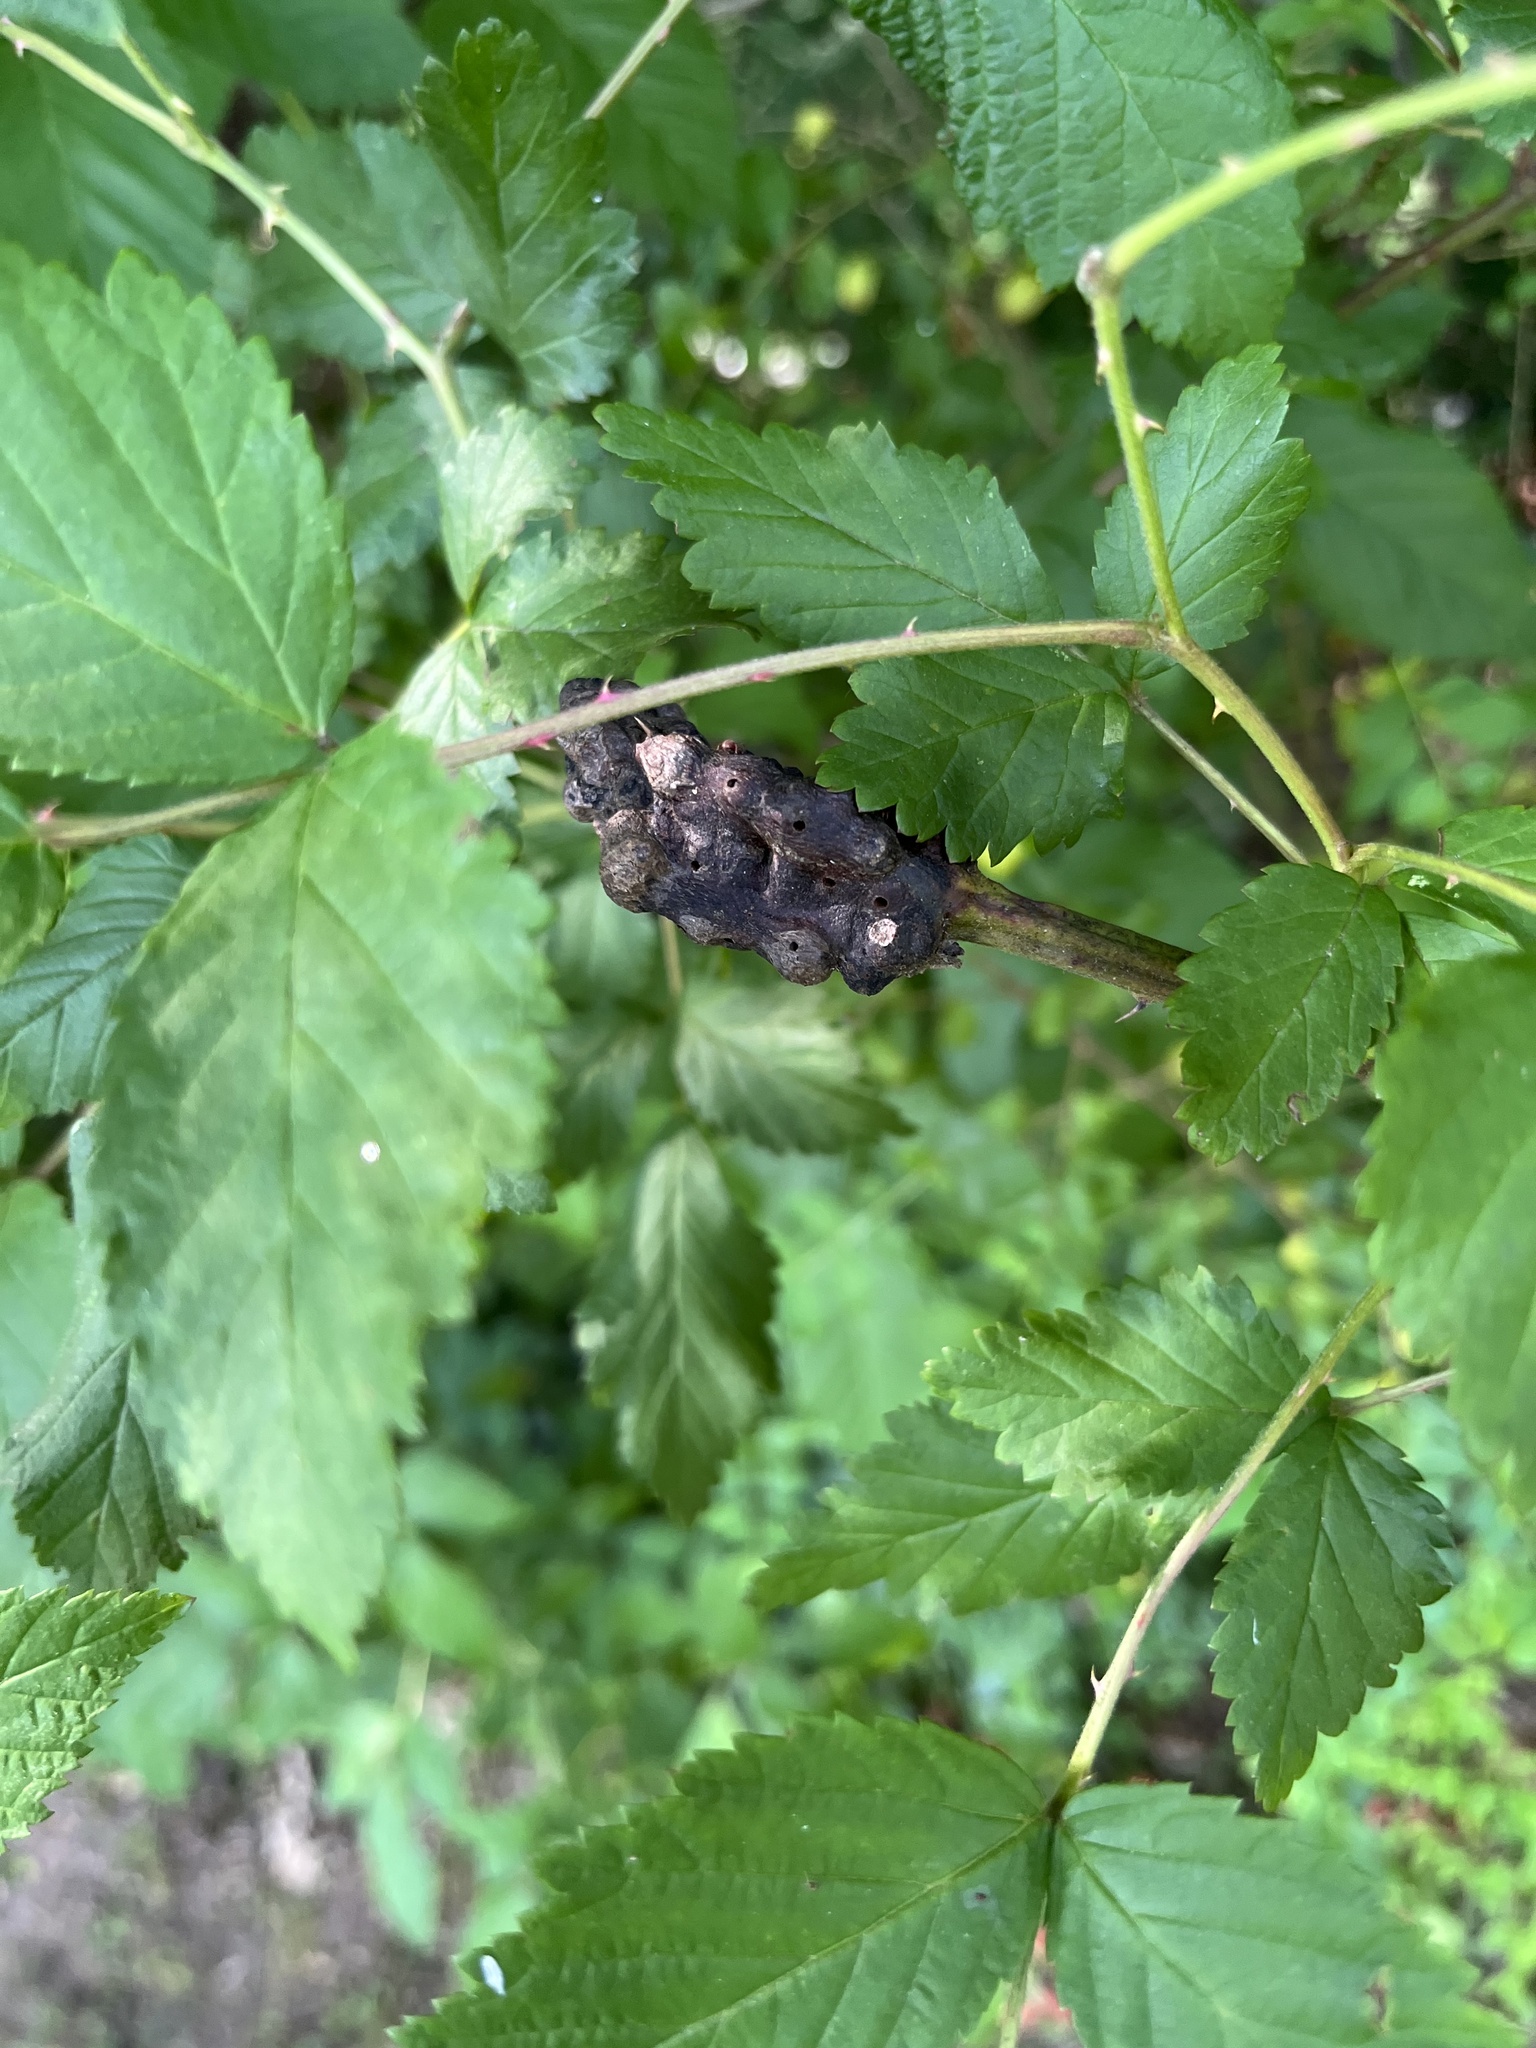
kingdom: Animalia
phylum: Arthropoda
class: Insecta
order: Hymenoptera
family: Cynipidae
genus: Diastrophus
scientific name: Diastrophus
